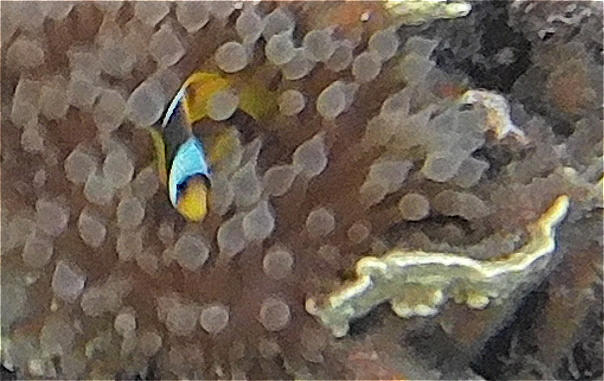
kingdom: Animalia
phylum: Chordata
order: Perciformes
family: Pomacentridae
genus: Amphiprion
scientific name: Amphiprion bicinctus
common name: Two-banded anemonefish
